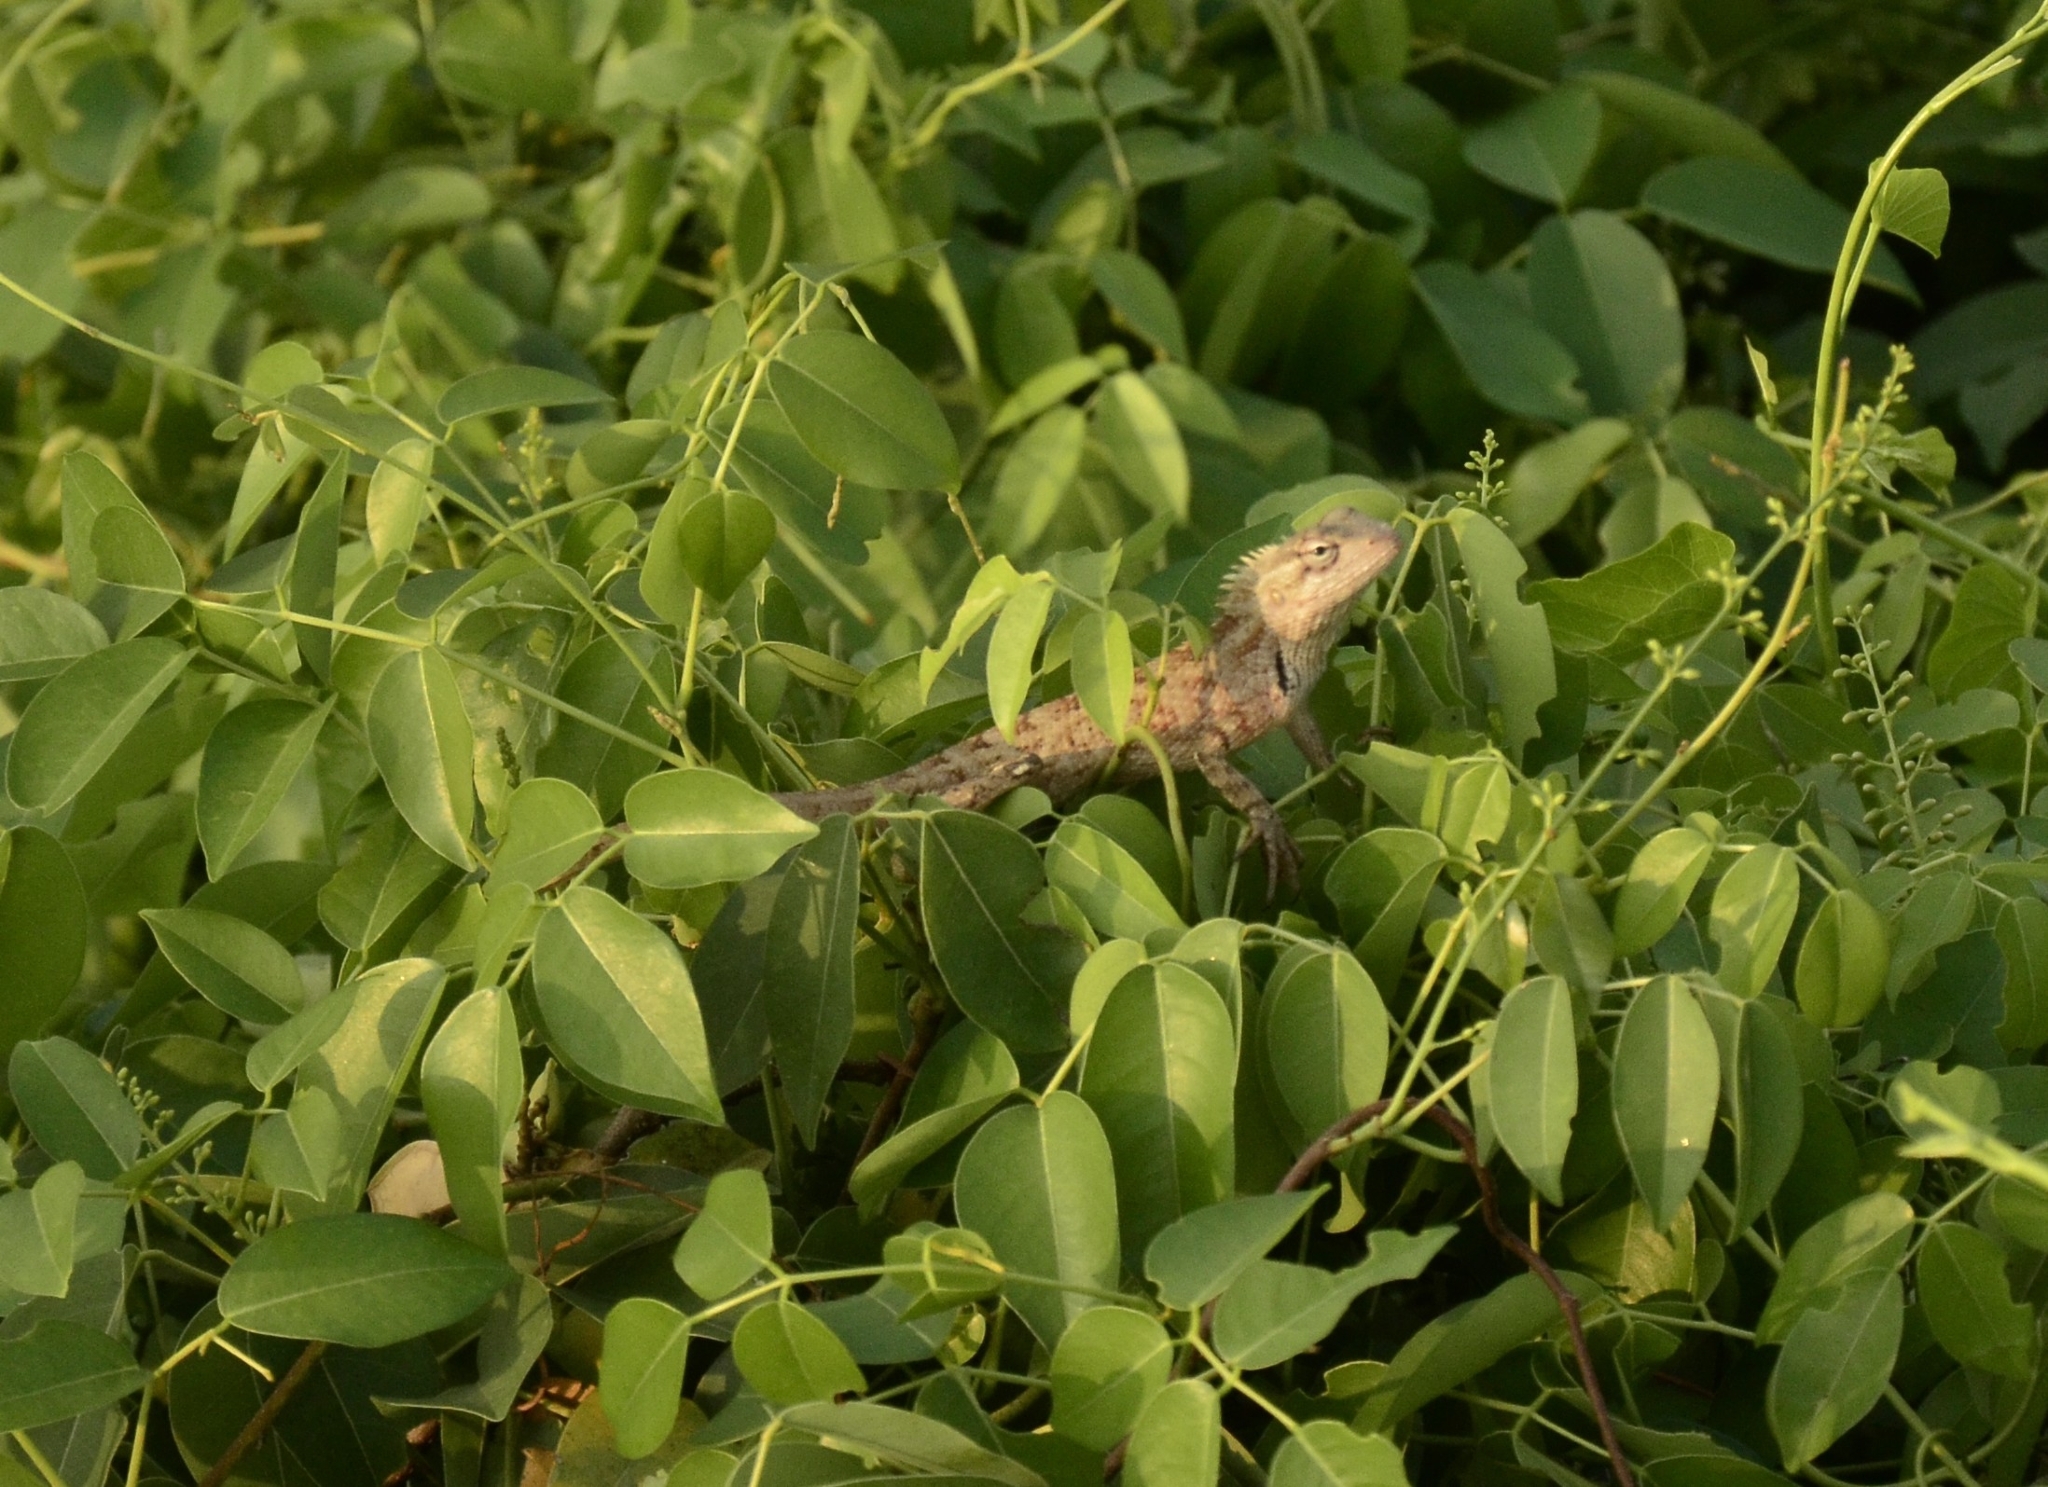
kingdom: Animalia
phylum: Chordata
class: Squamata
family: Agamidae
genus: Calotes
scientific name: Calotes versicolor
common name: Oriental garden lizard
